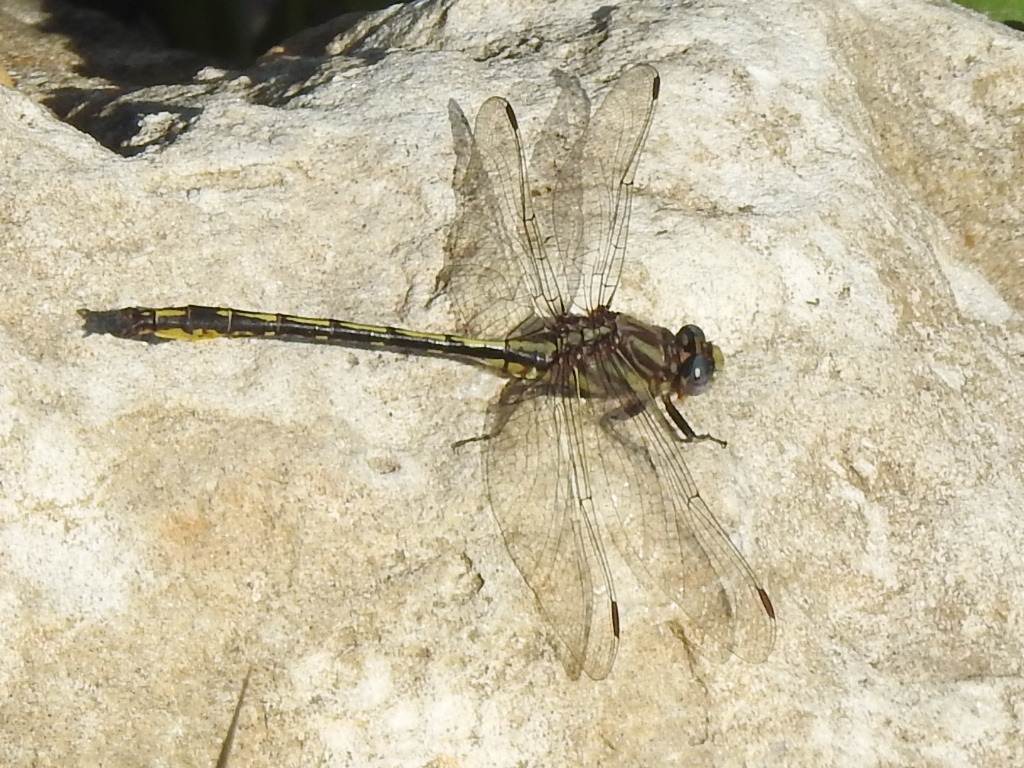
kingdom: Animalia
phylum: Arthropoda
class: Insecta
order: Odonata
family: Gomphidae
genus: Phanogomphus
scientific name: Phanogomphus oklahomensis
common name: Oklahoma clubtail
